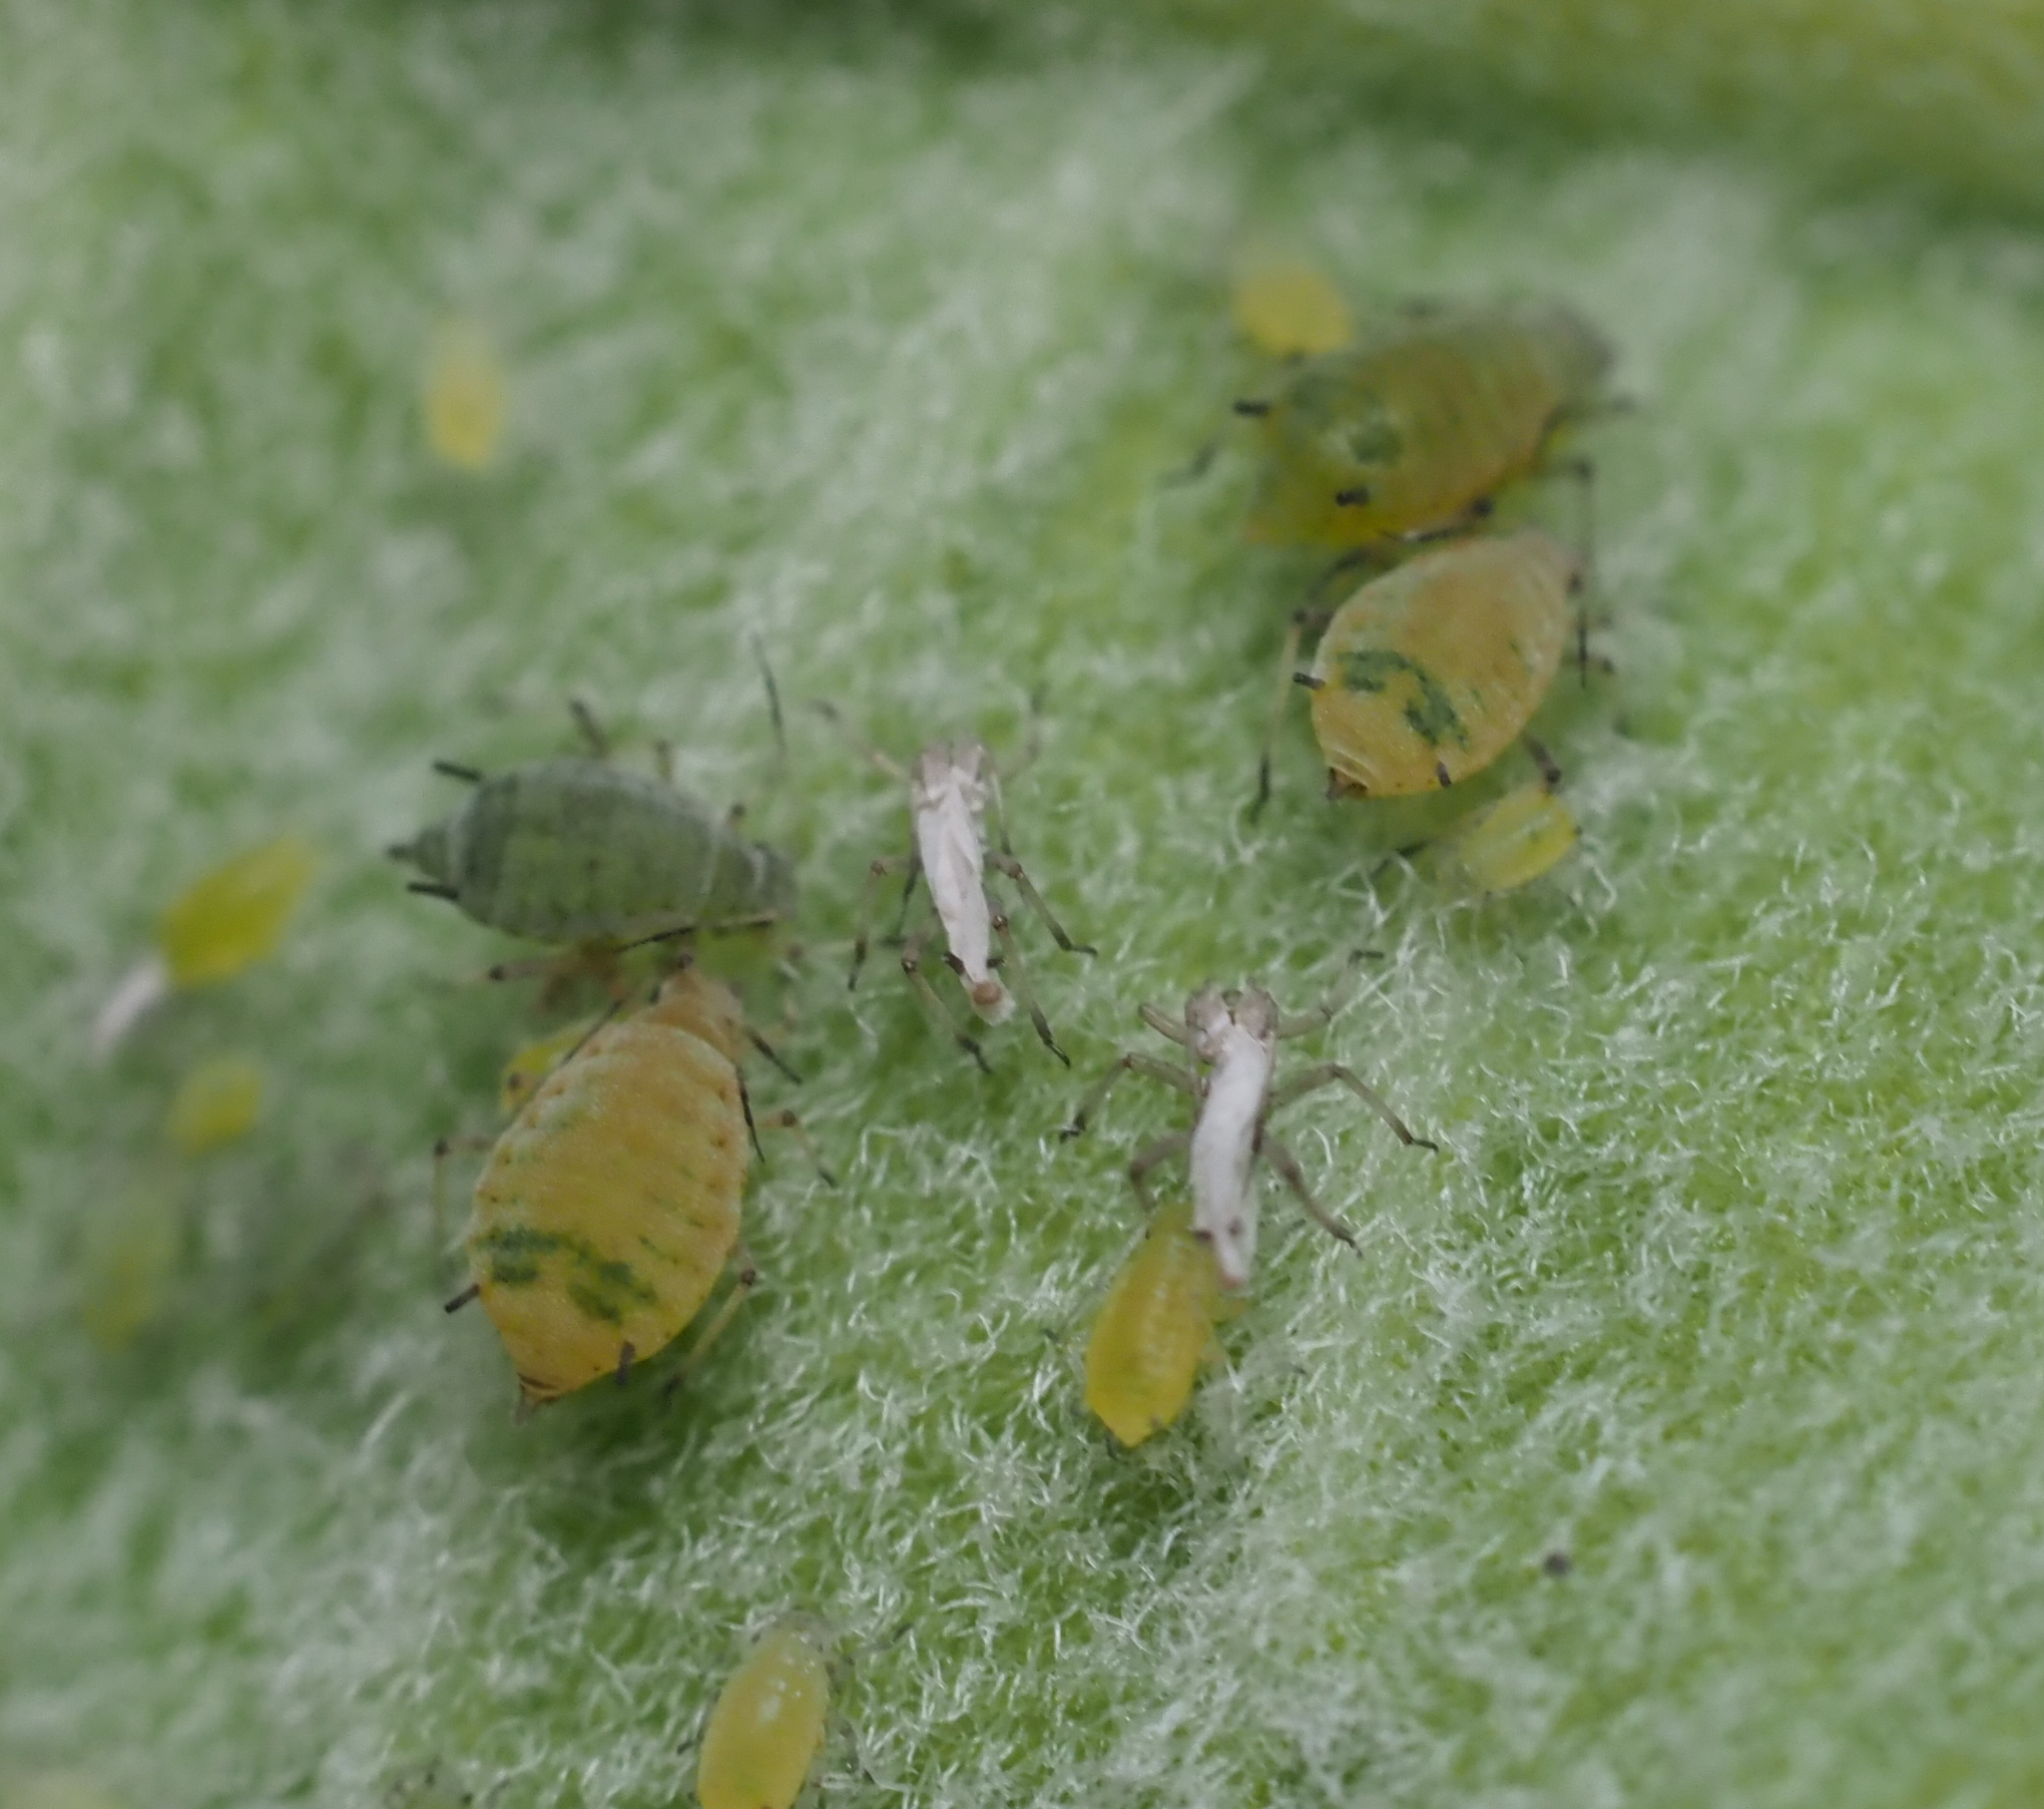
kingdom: Animalia
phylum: Arthropoda
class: Insecta
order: Hemiptera
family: Aphididae
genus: Aphis
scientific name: Aphis asclepiadis
